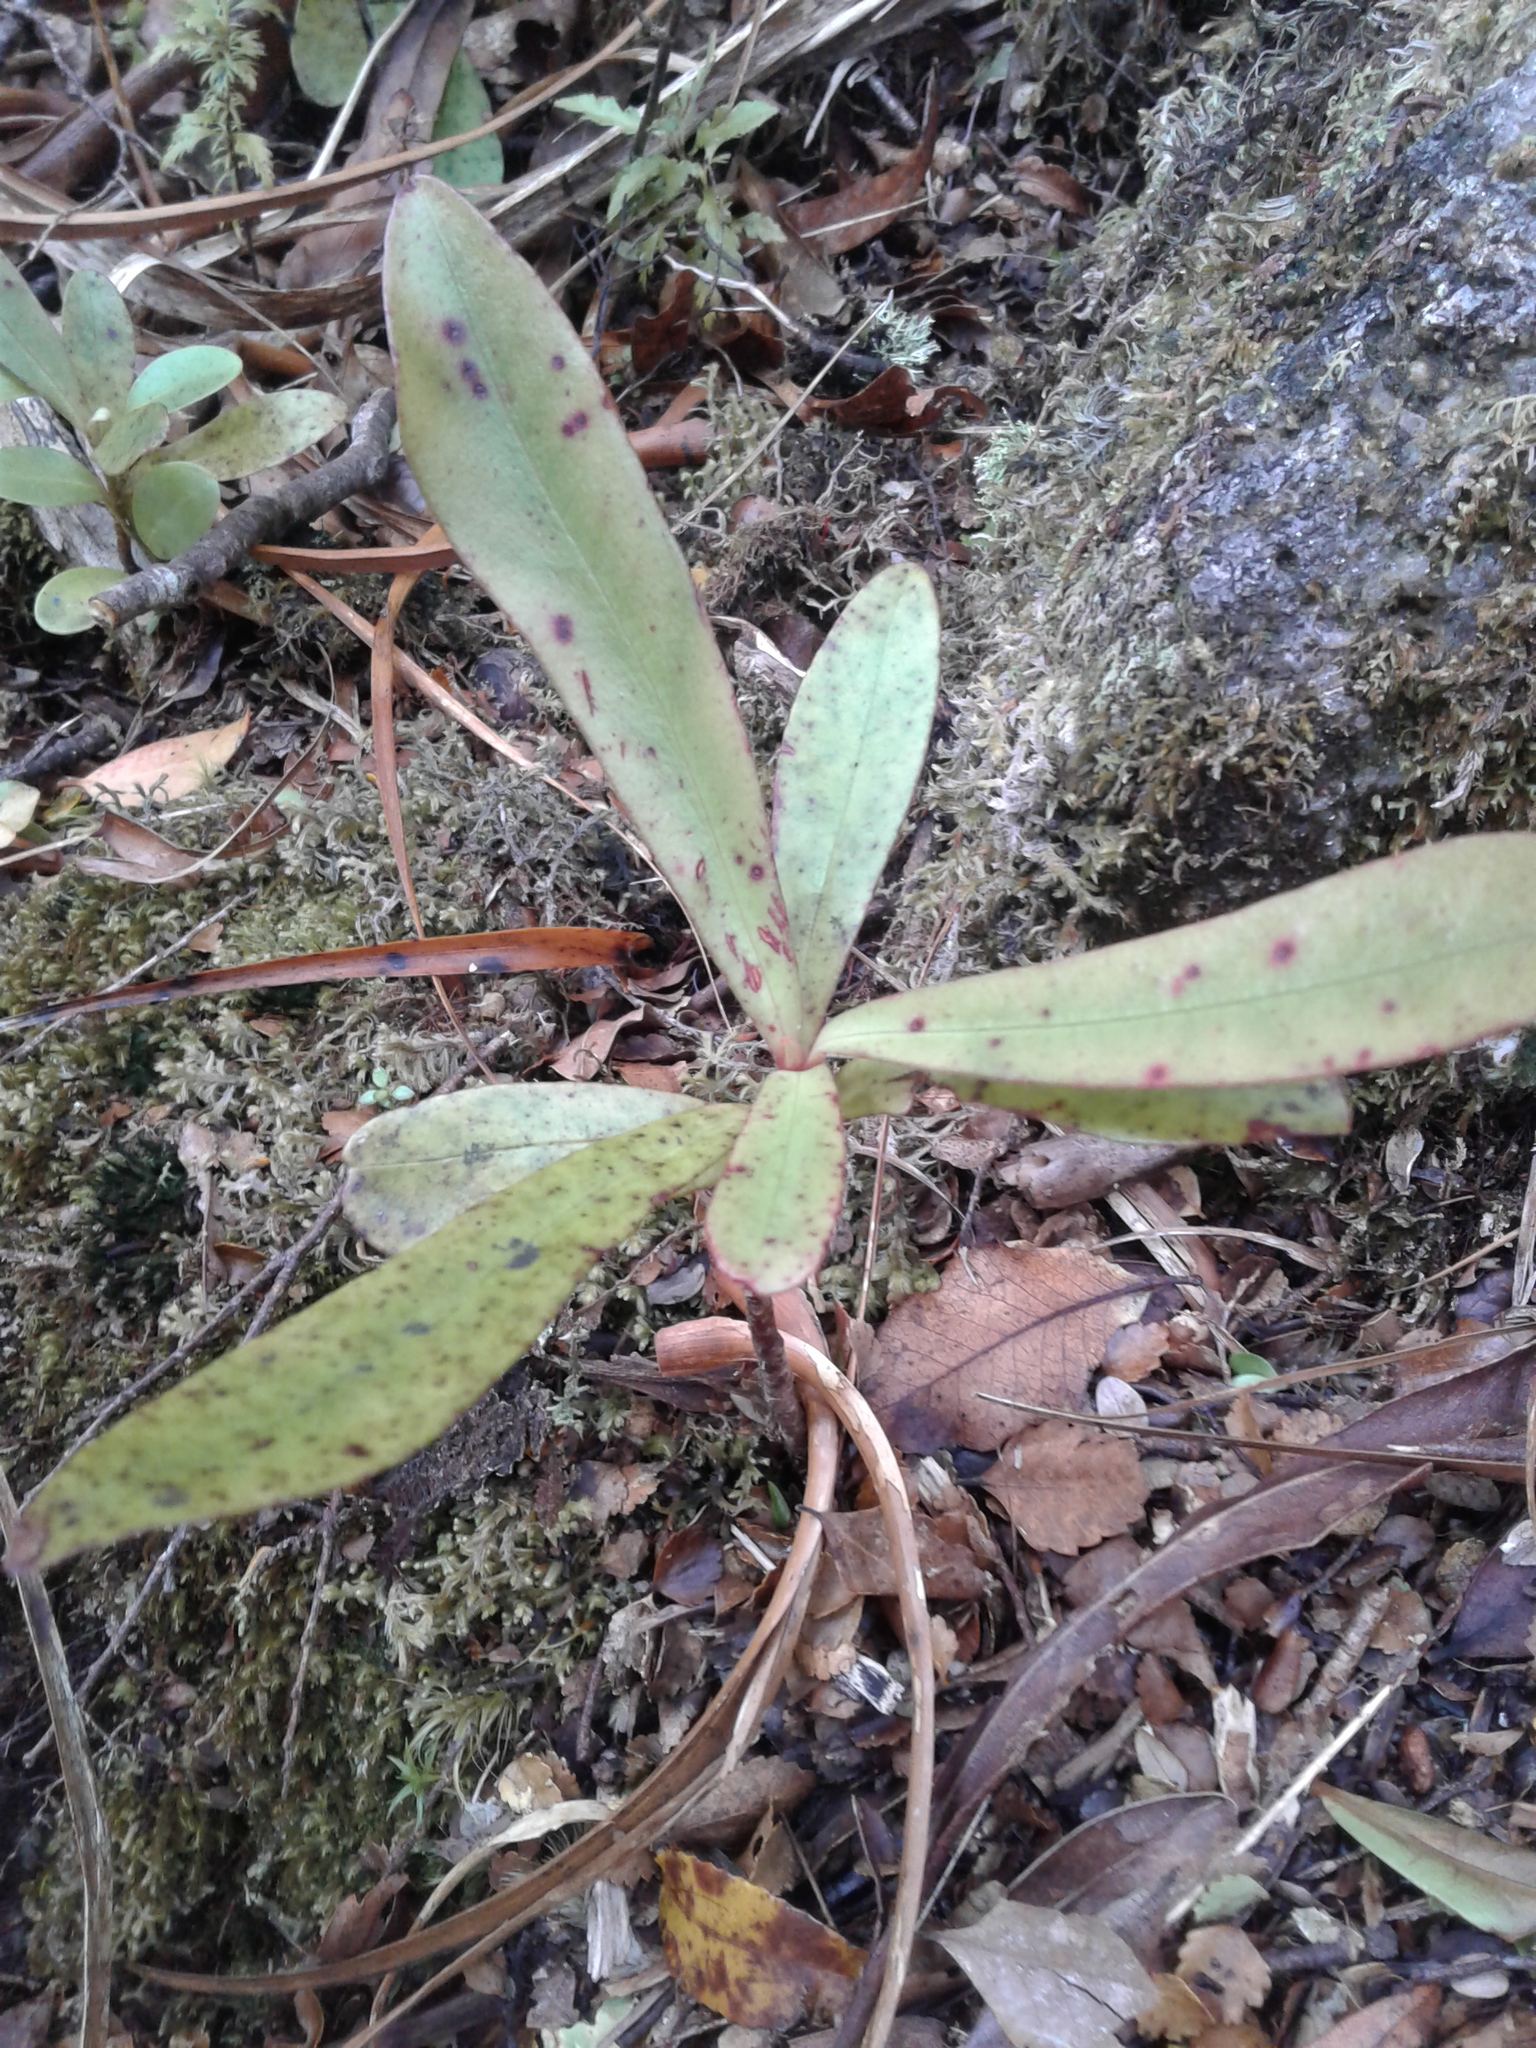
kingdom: Plantae
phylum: Tracheophyta
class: Magnoliopsida
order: Ericales
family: Primulaceae
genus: Myrsine
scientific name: Myrsine salicina
